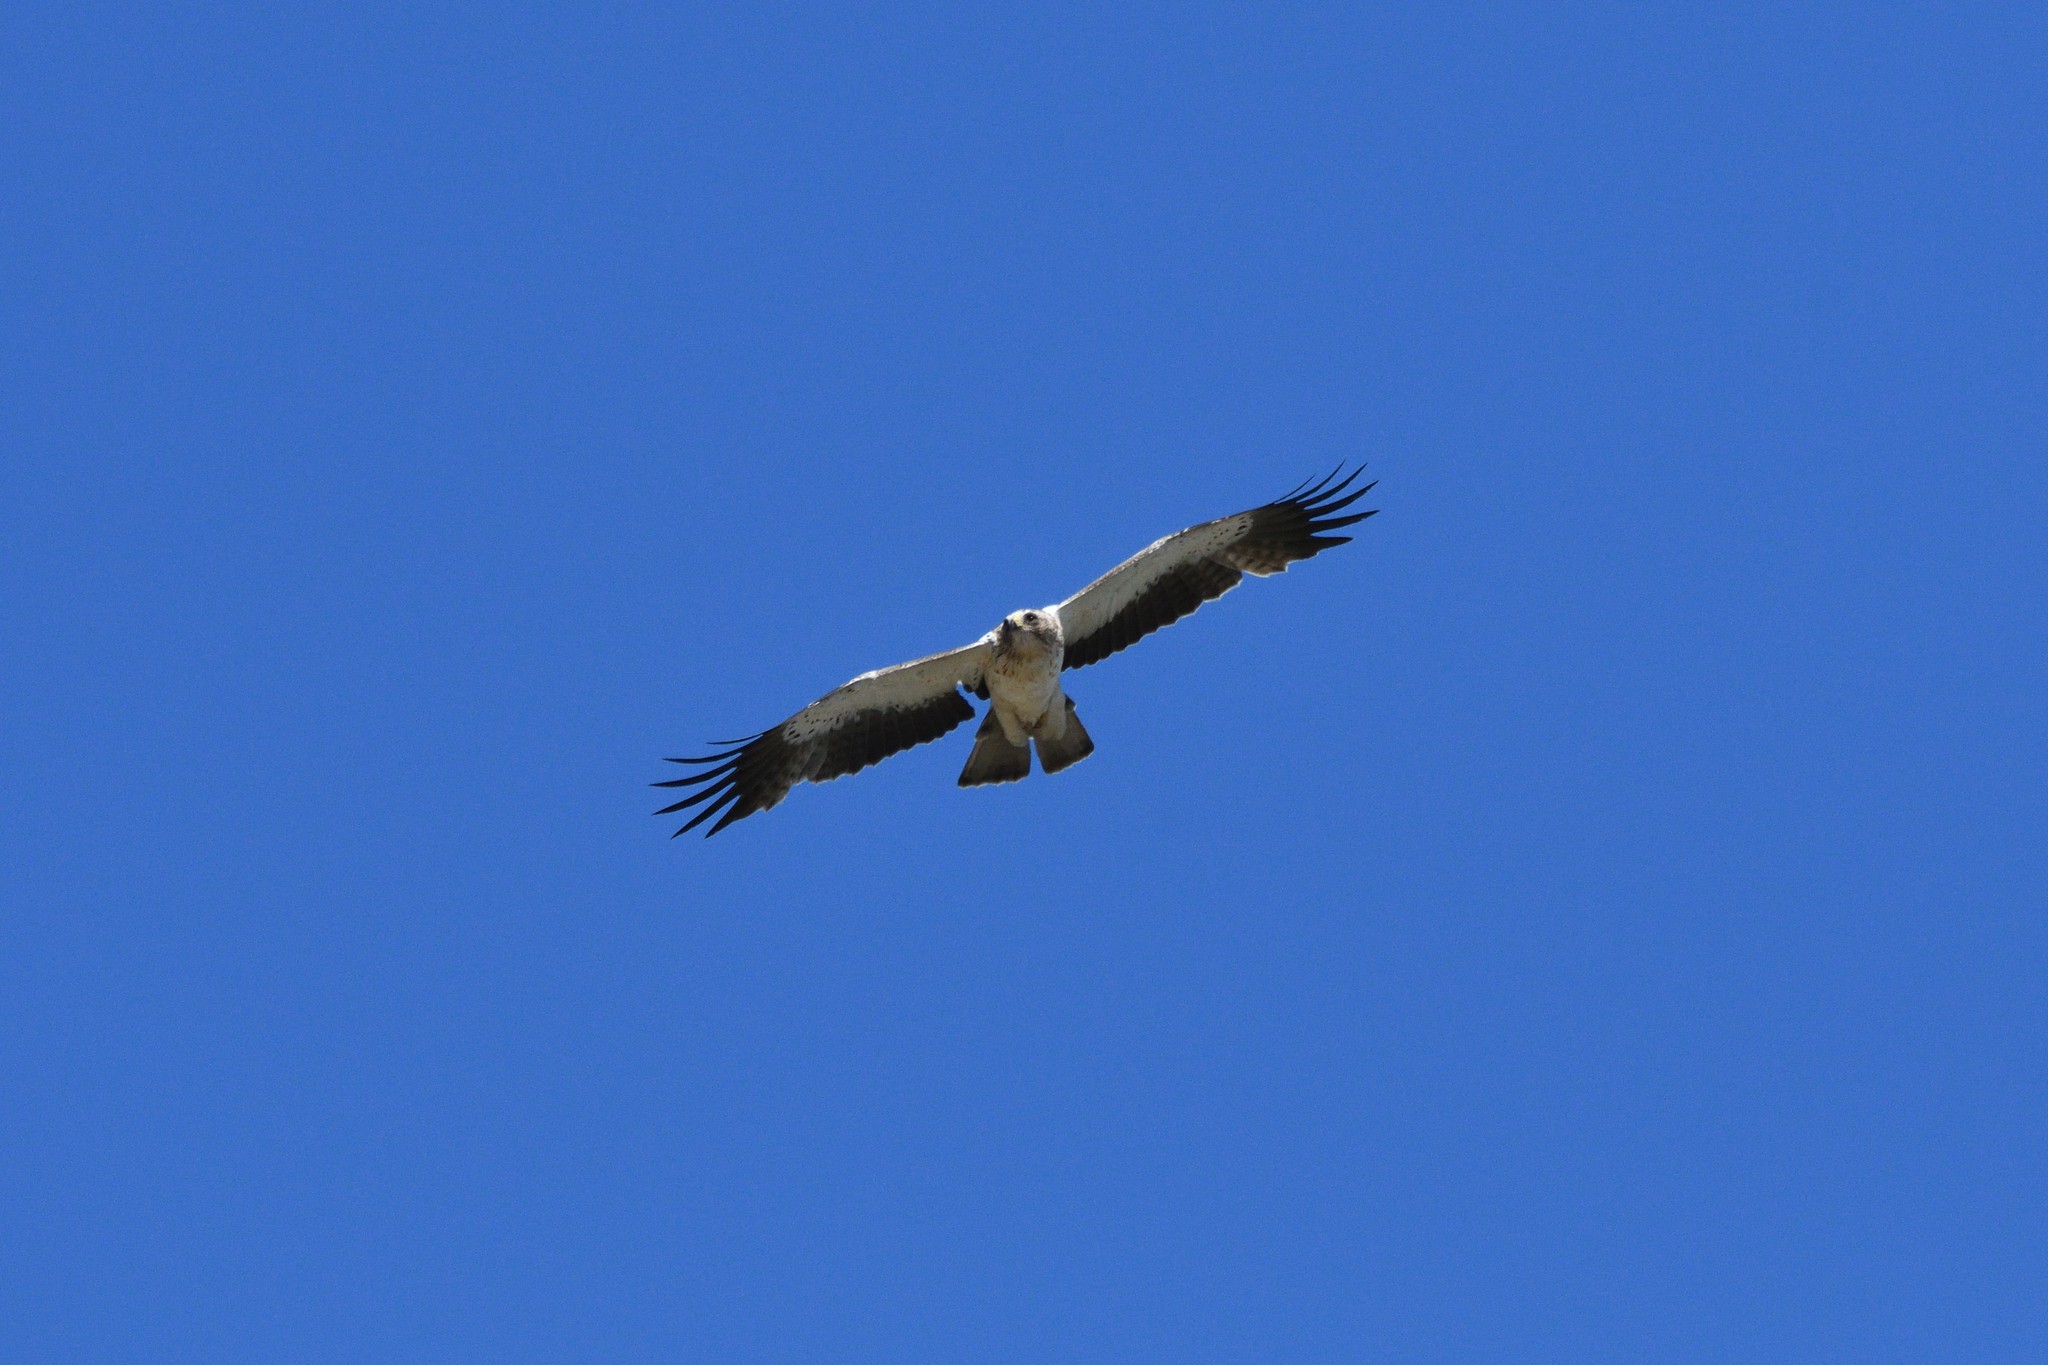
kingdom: Animalia
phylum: Chordata
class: Aves
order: Accipitriformes
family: Accipitridae
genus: Hieraaetus
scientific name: Hieraaetus pennatus
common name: Booted eagle
